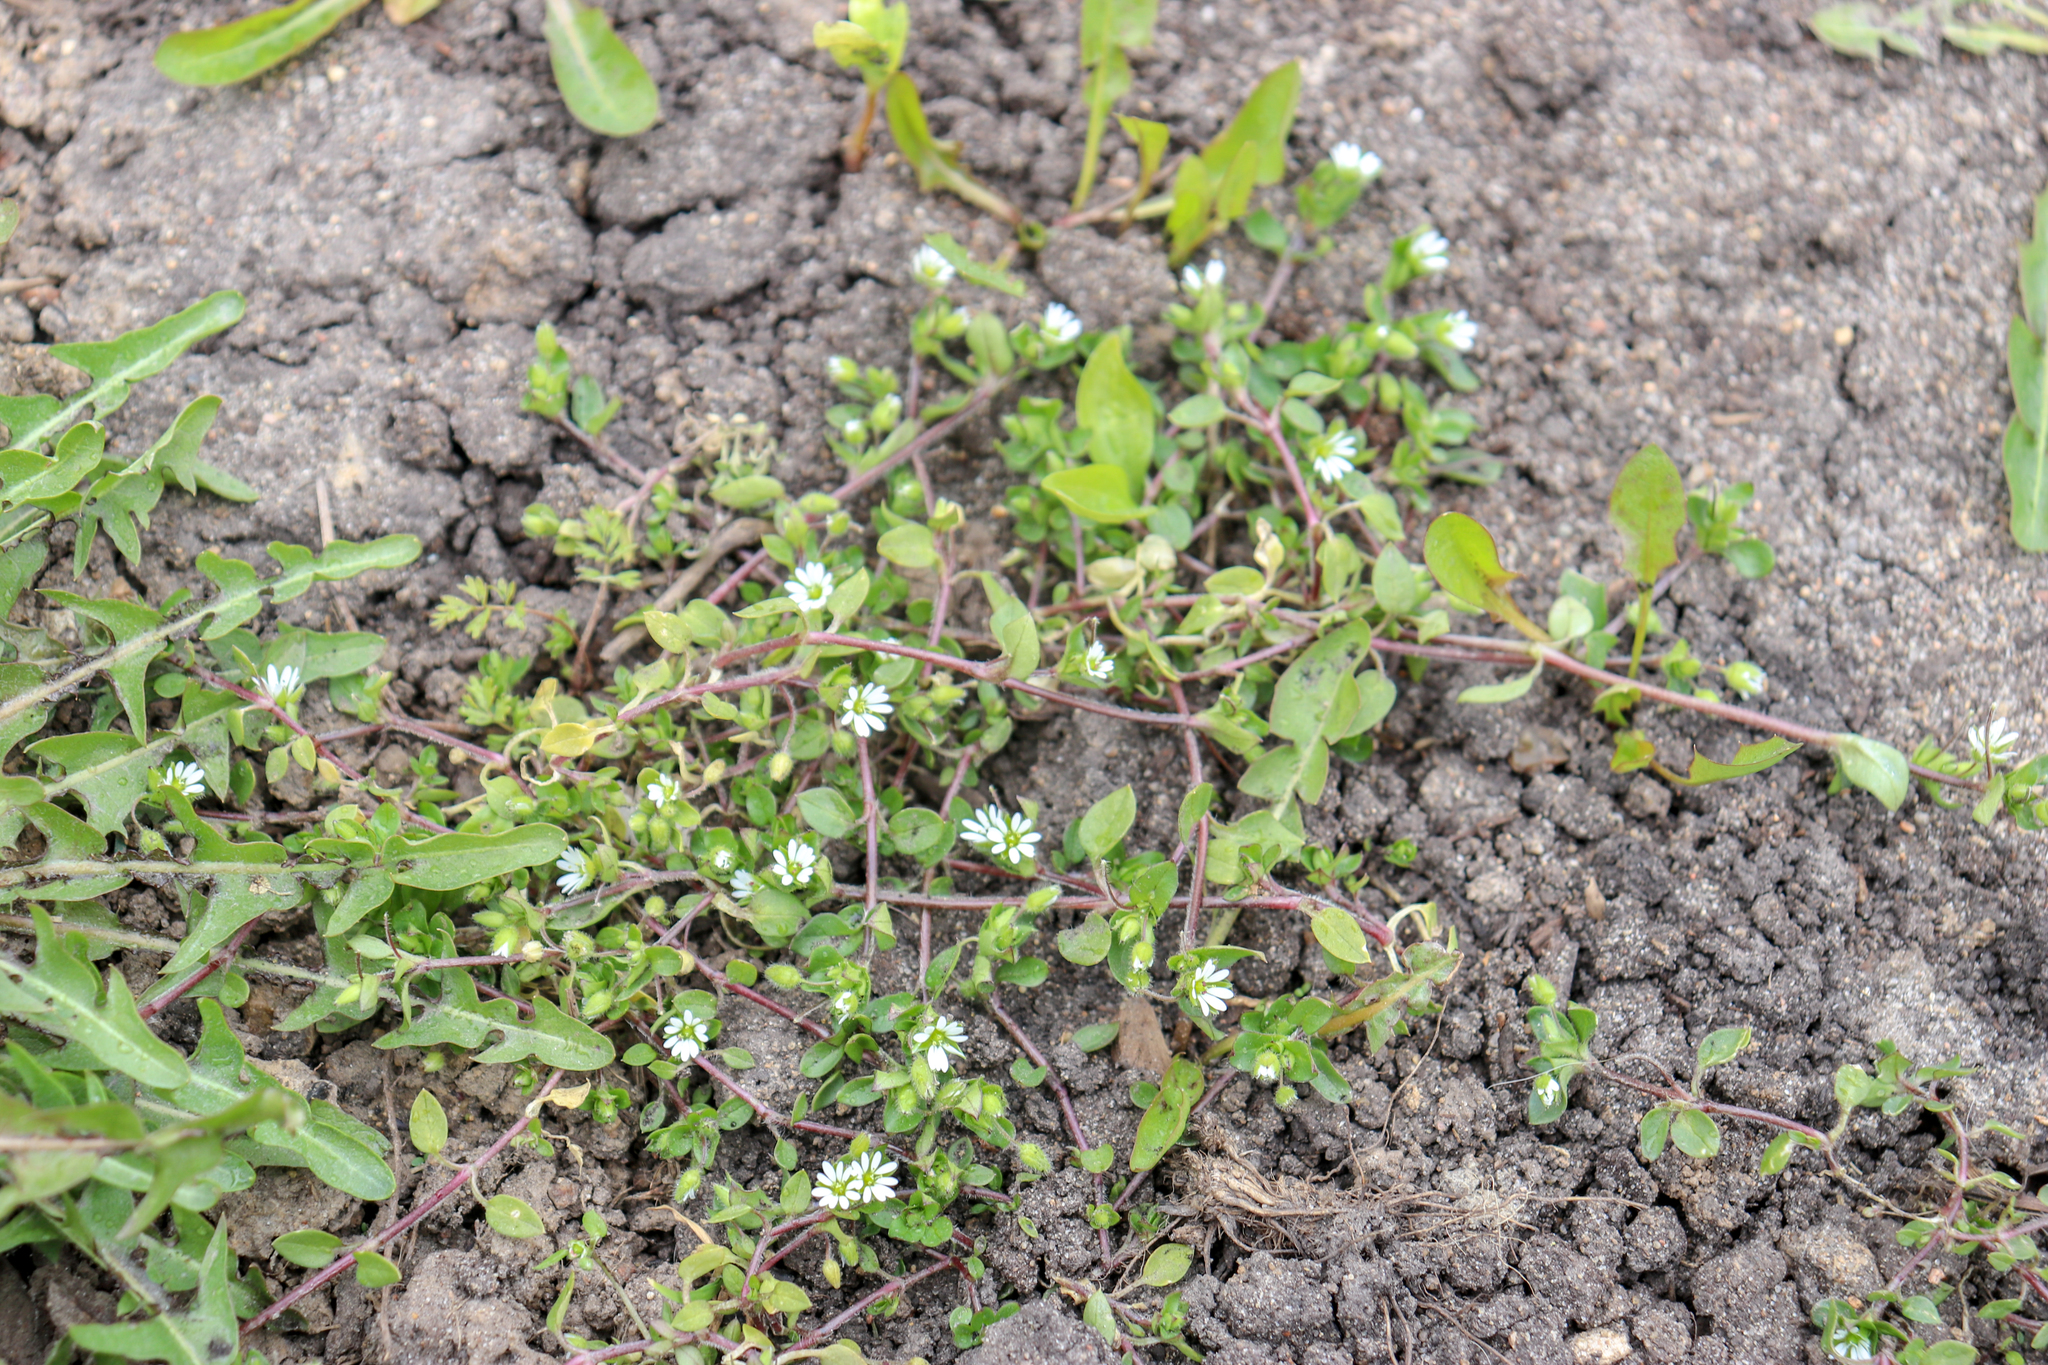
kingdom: Plantae
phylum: Tracheophyta
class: Magnoliopsida
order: Caryophyllales
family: Caryophyllaceae
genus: Stellaria
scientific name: Stellaria media
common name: Common chickweed
